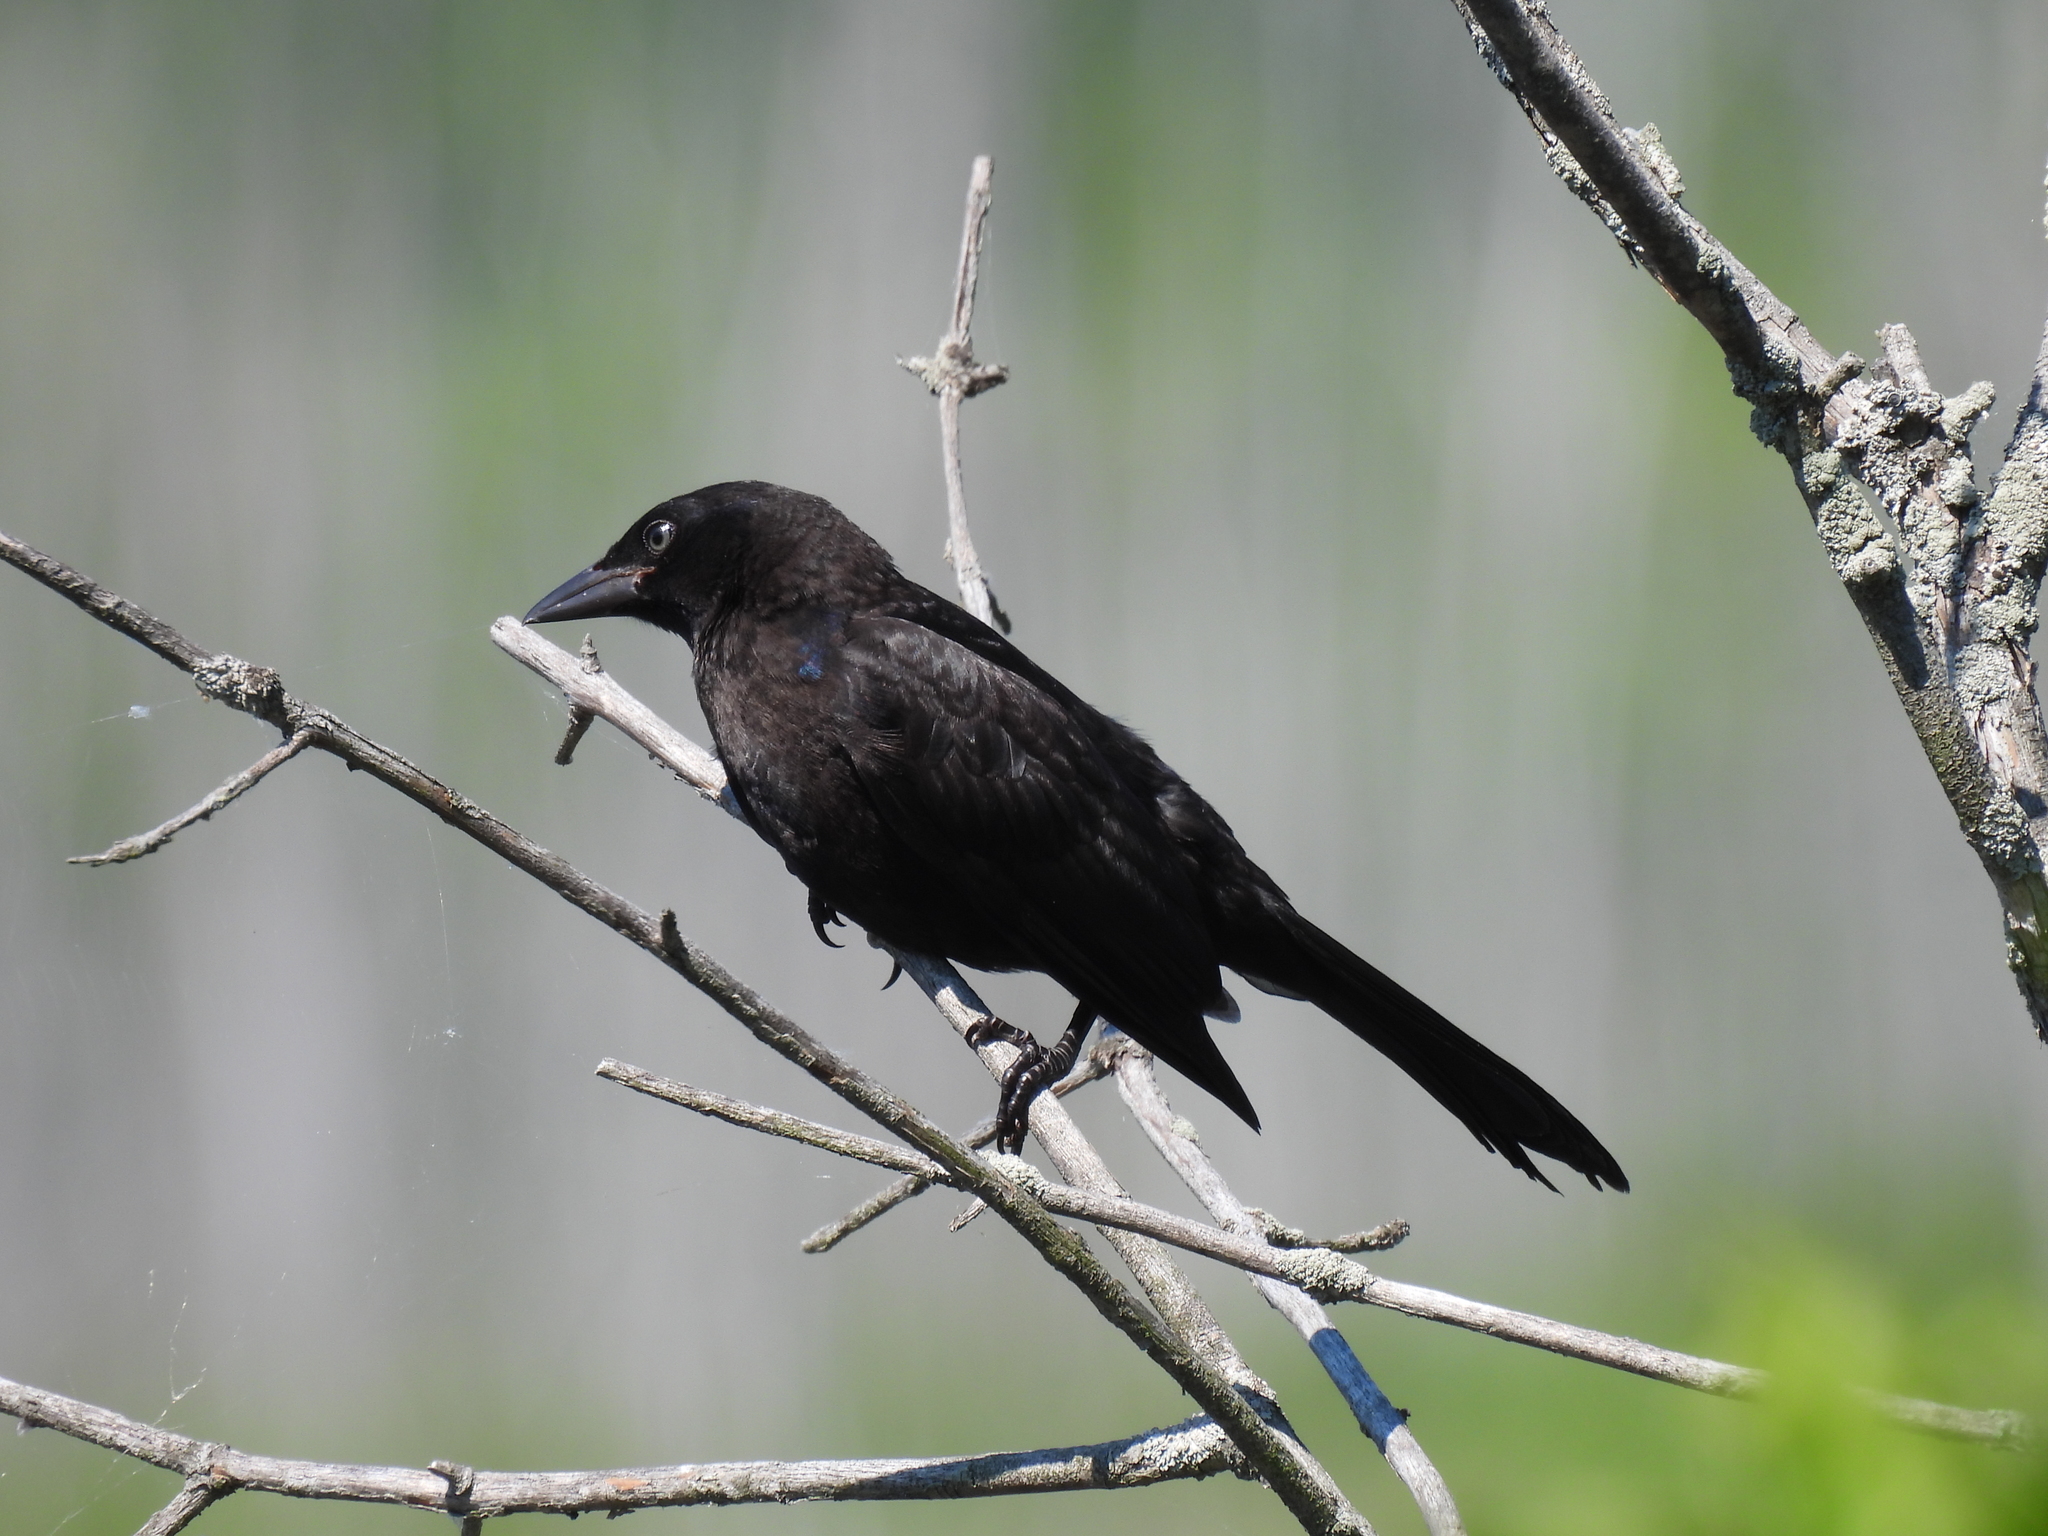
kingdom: Animalia
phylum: Chordata
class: Aves
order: Passeriformes
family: Icteridae
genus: Quiscalus
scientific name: Quiscalus quiscula
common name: Common grackle
